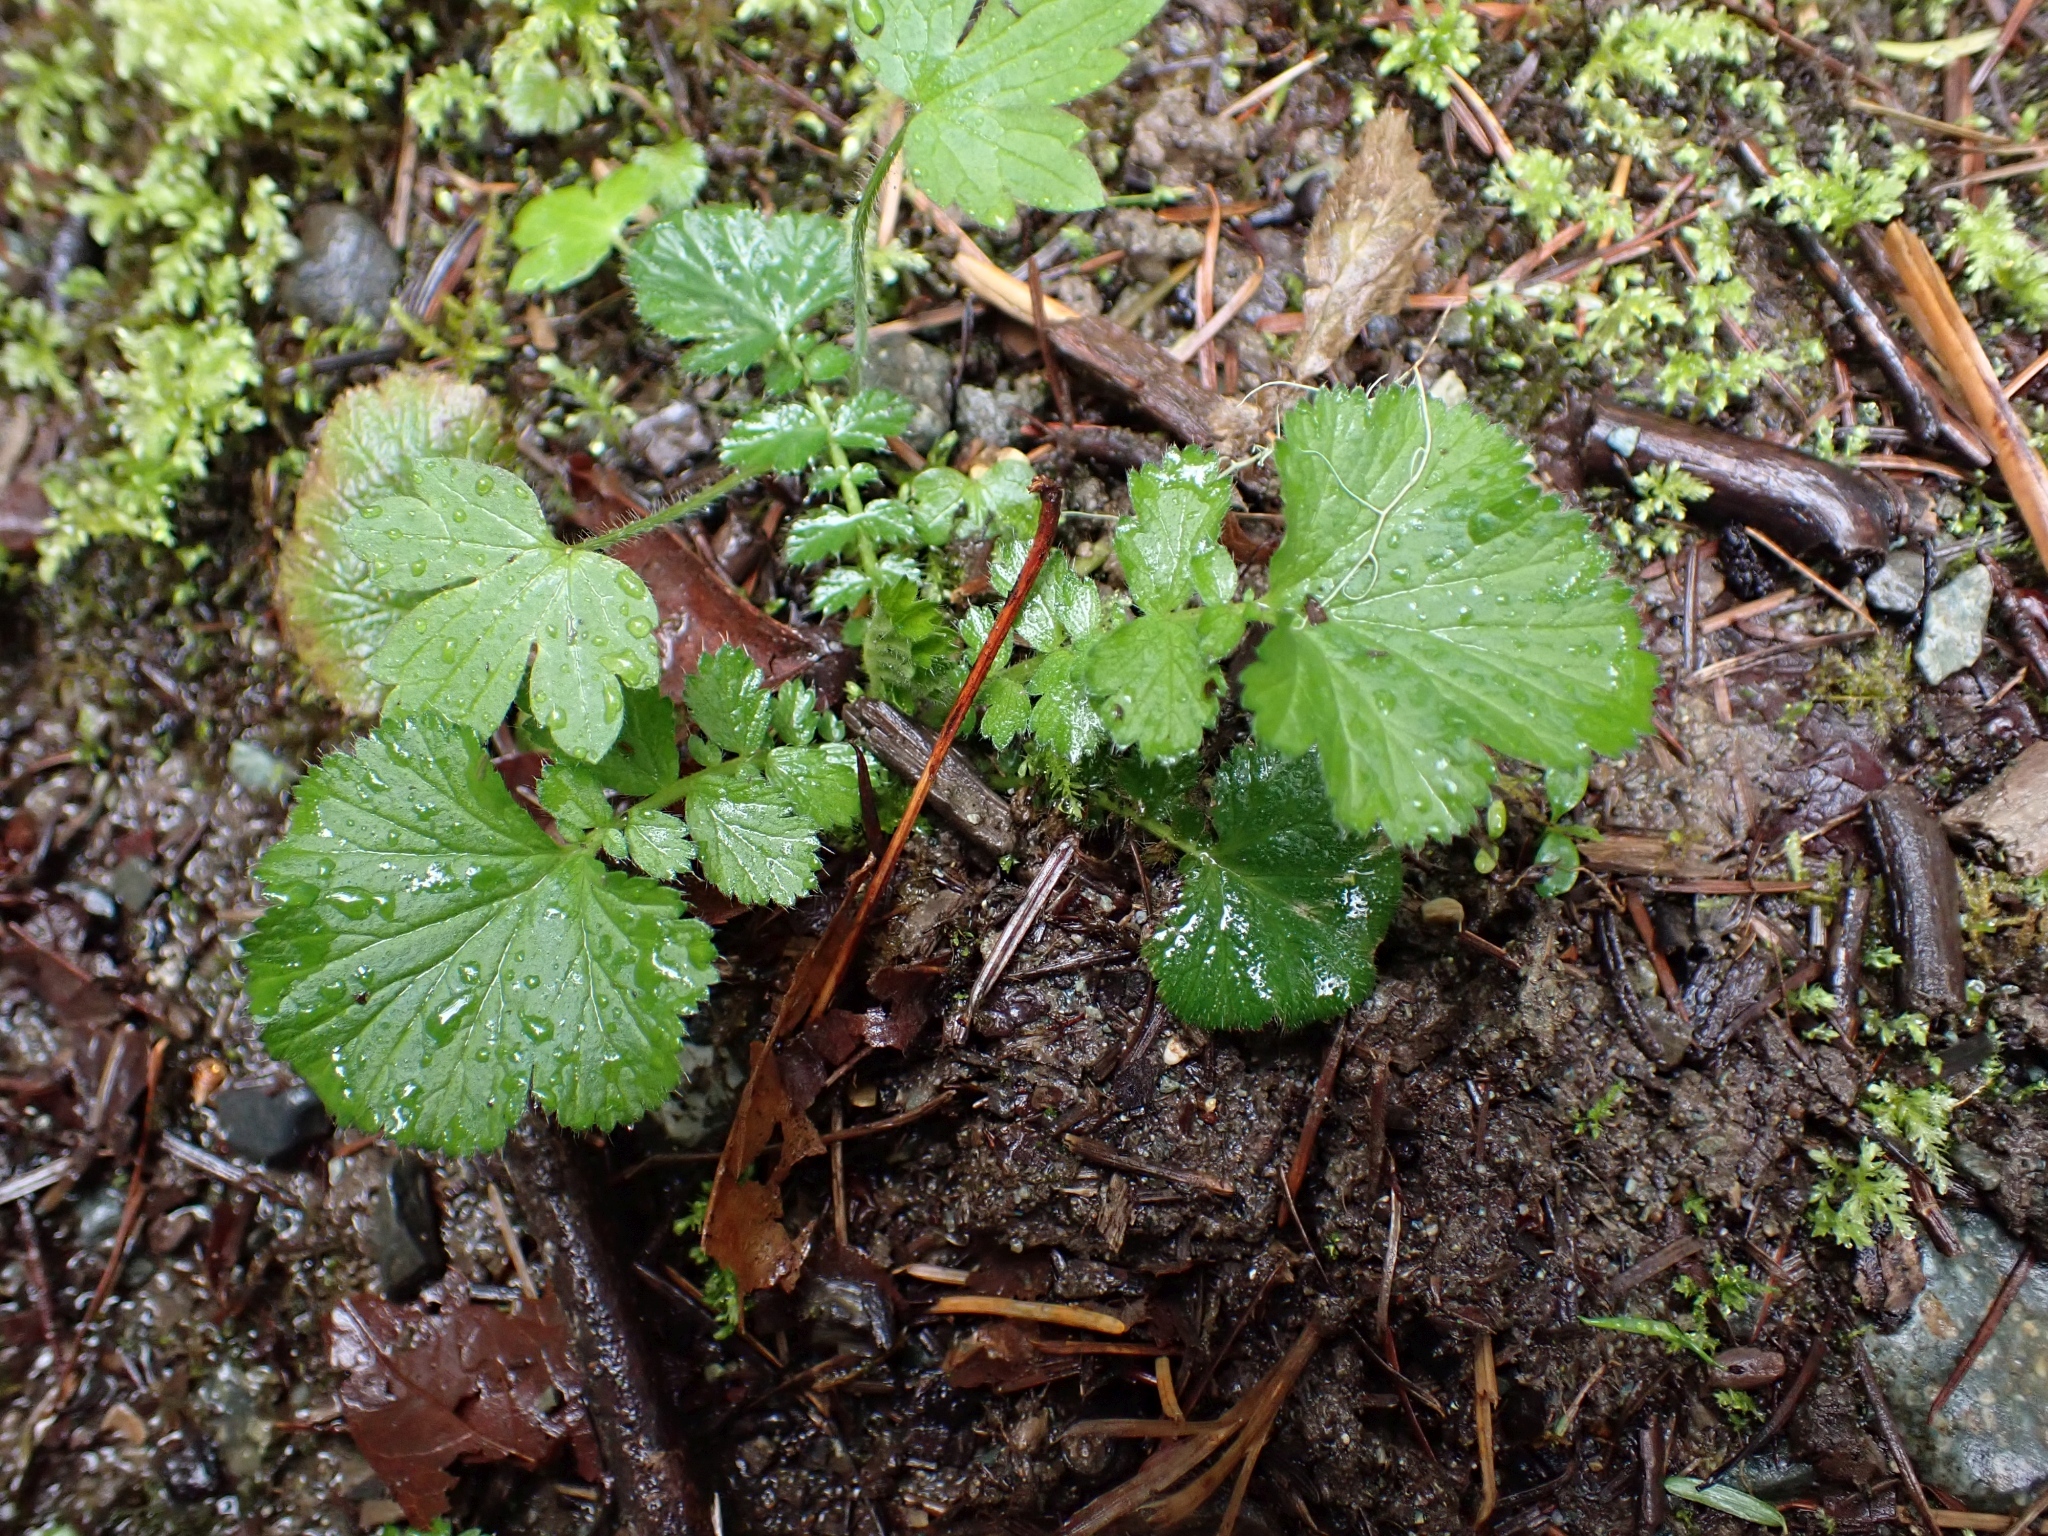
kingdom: Plantae
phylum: Tracheophyta
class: Magnoliopsida
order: Rosales
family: Rosaceae
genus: Geum
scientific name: Geum macrophyllum
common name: Large-leaved avens
